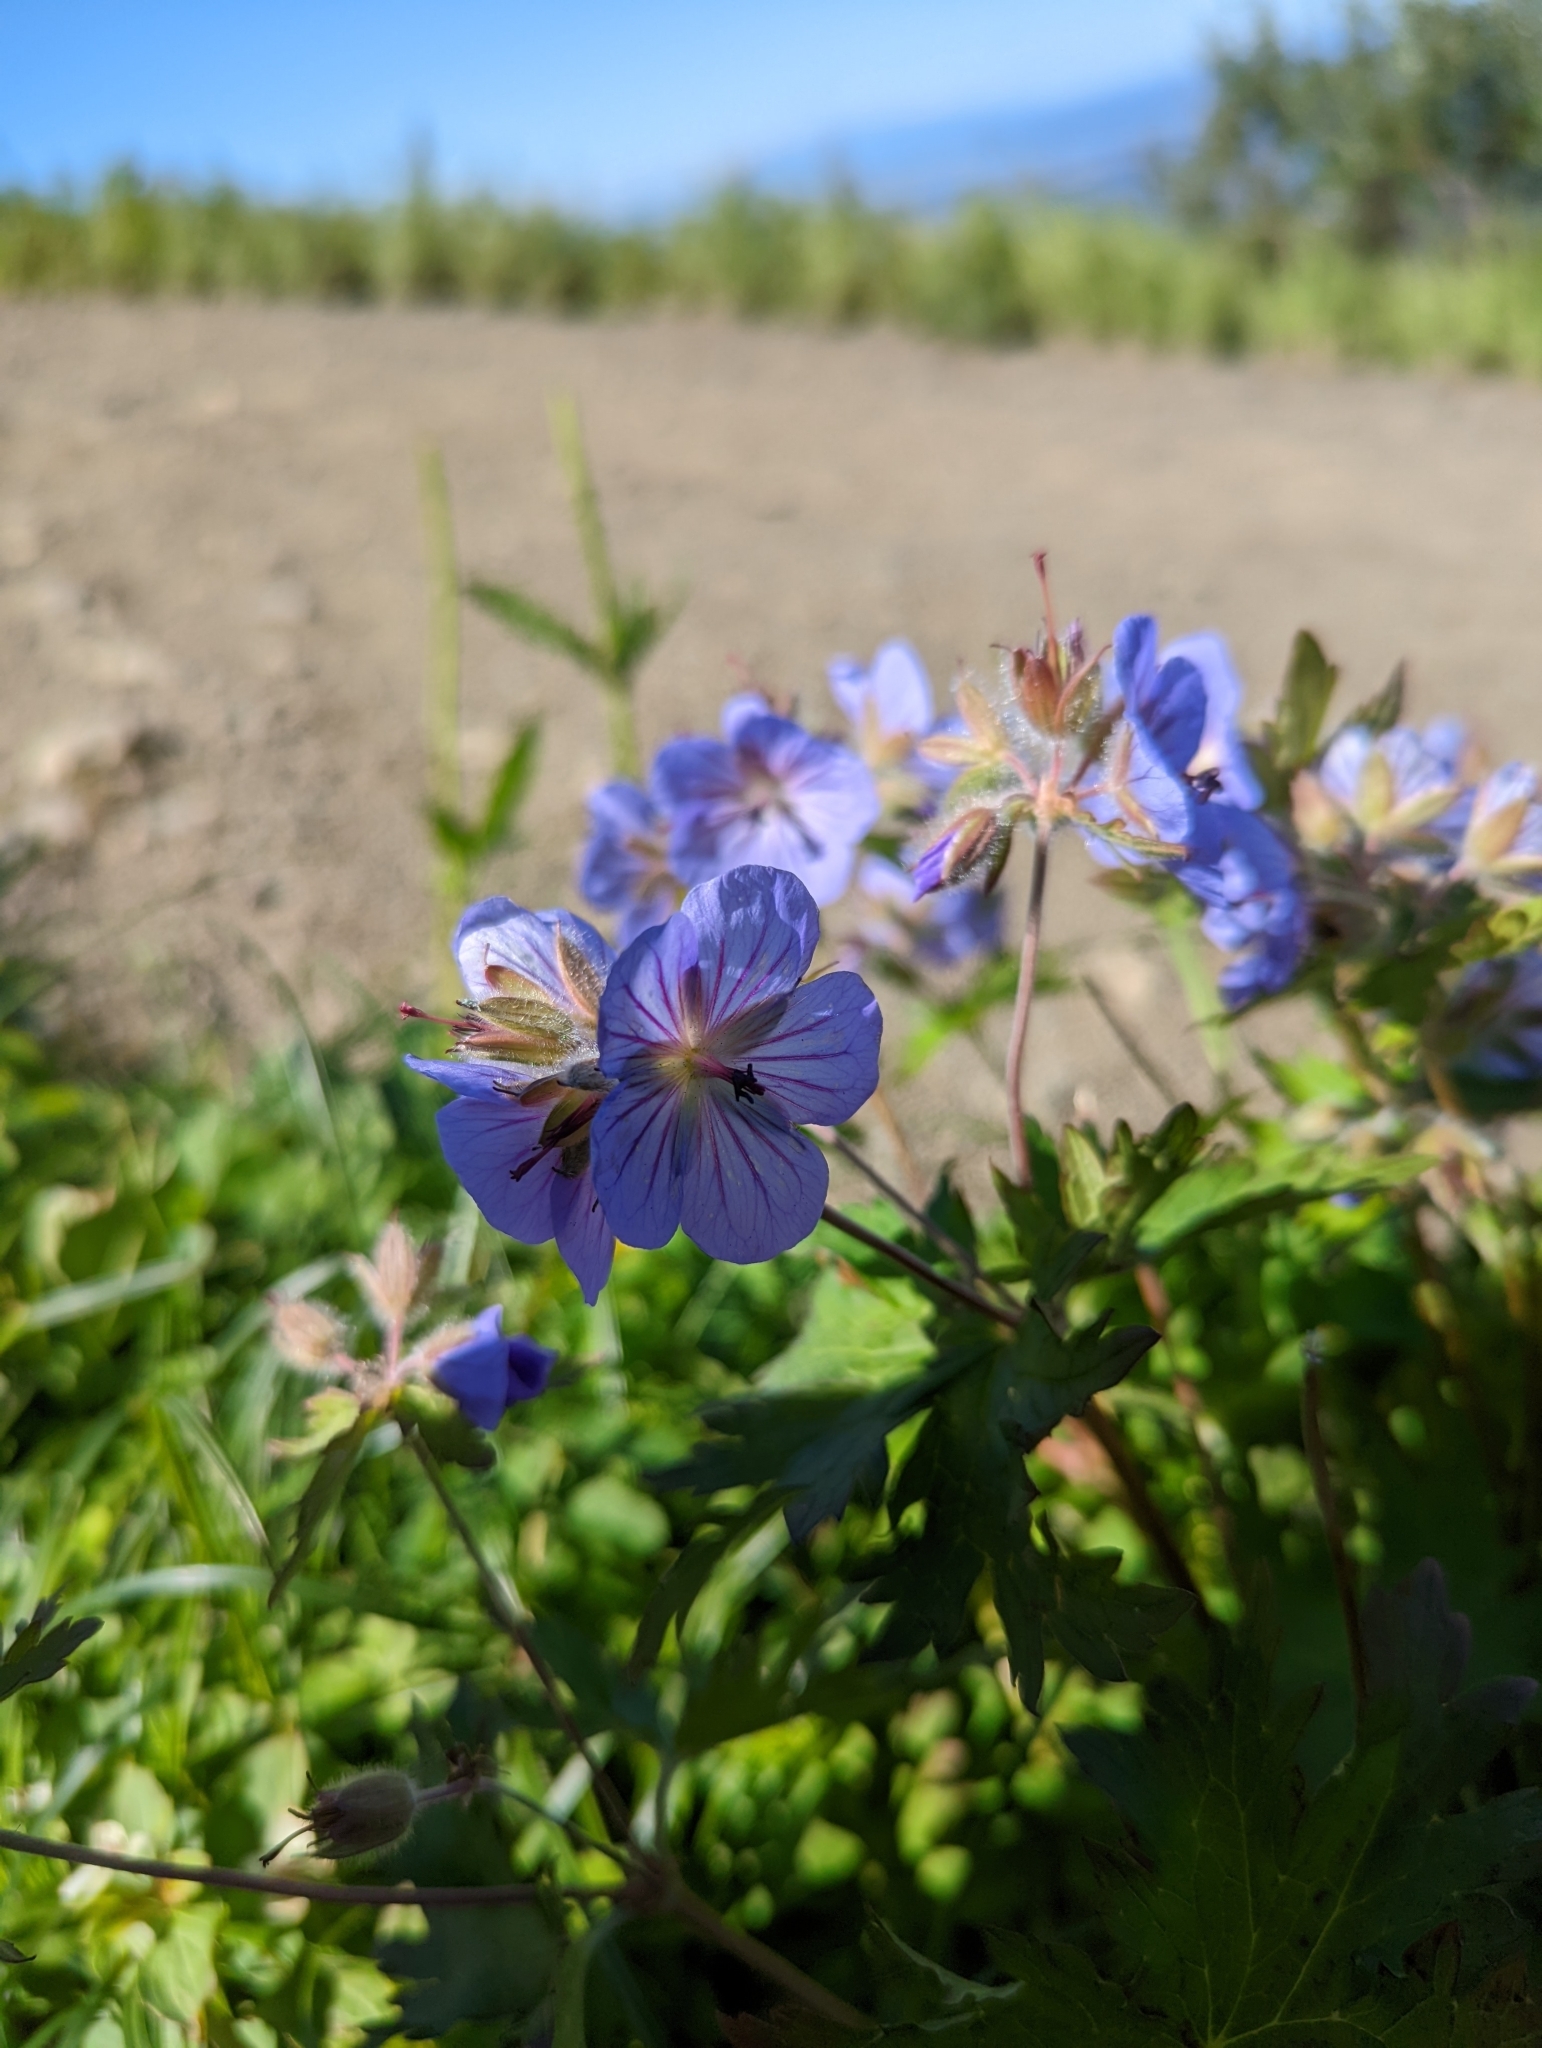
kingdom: Plantae
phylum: Tracheophyta
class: Magnoliopsida
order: Geraniales
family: Geraniaceae
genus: Geranium
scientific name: Geranium erianthum
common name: Northern crane's-bill
